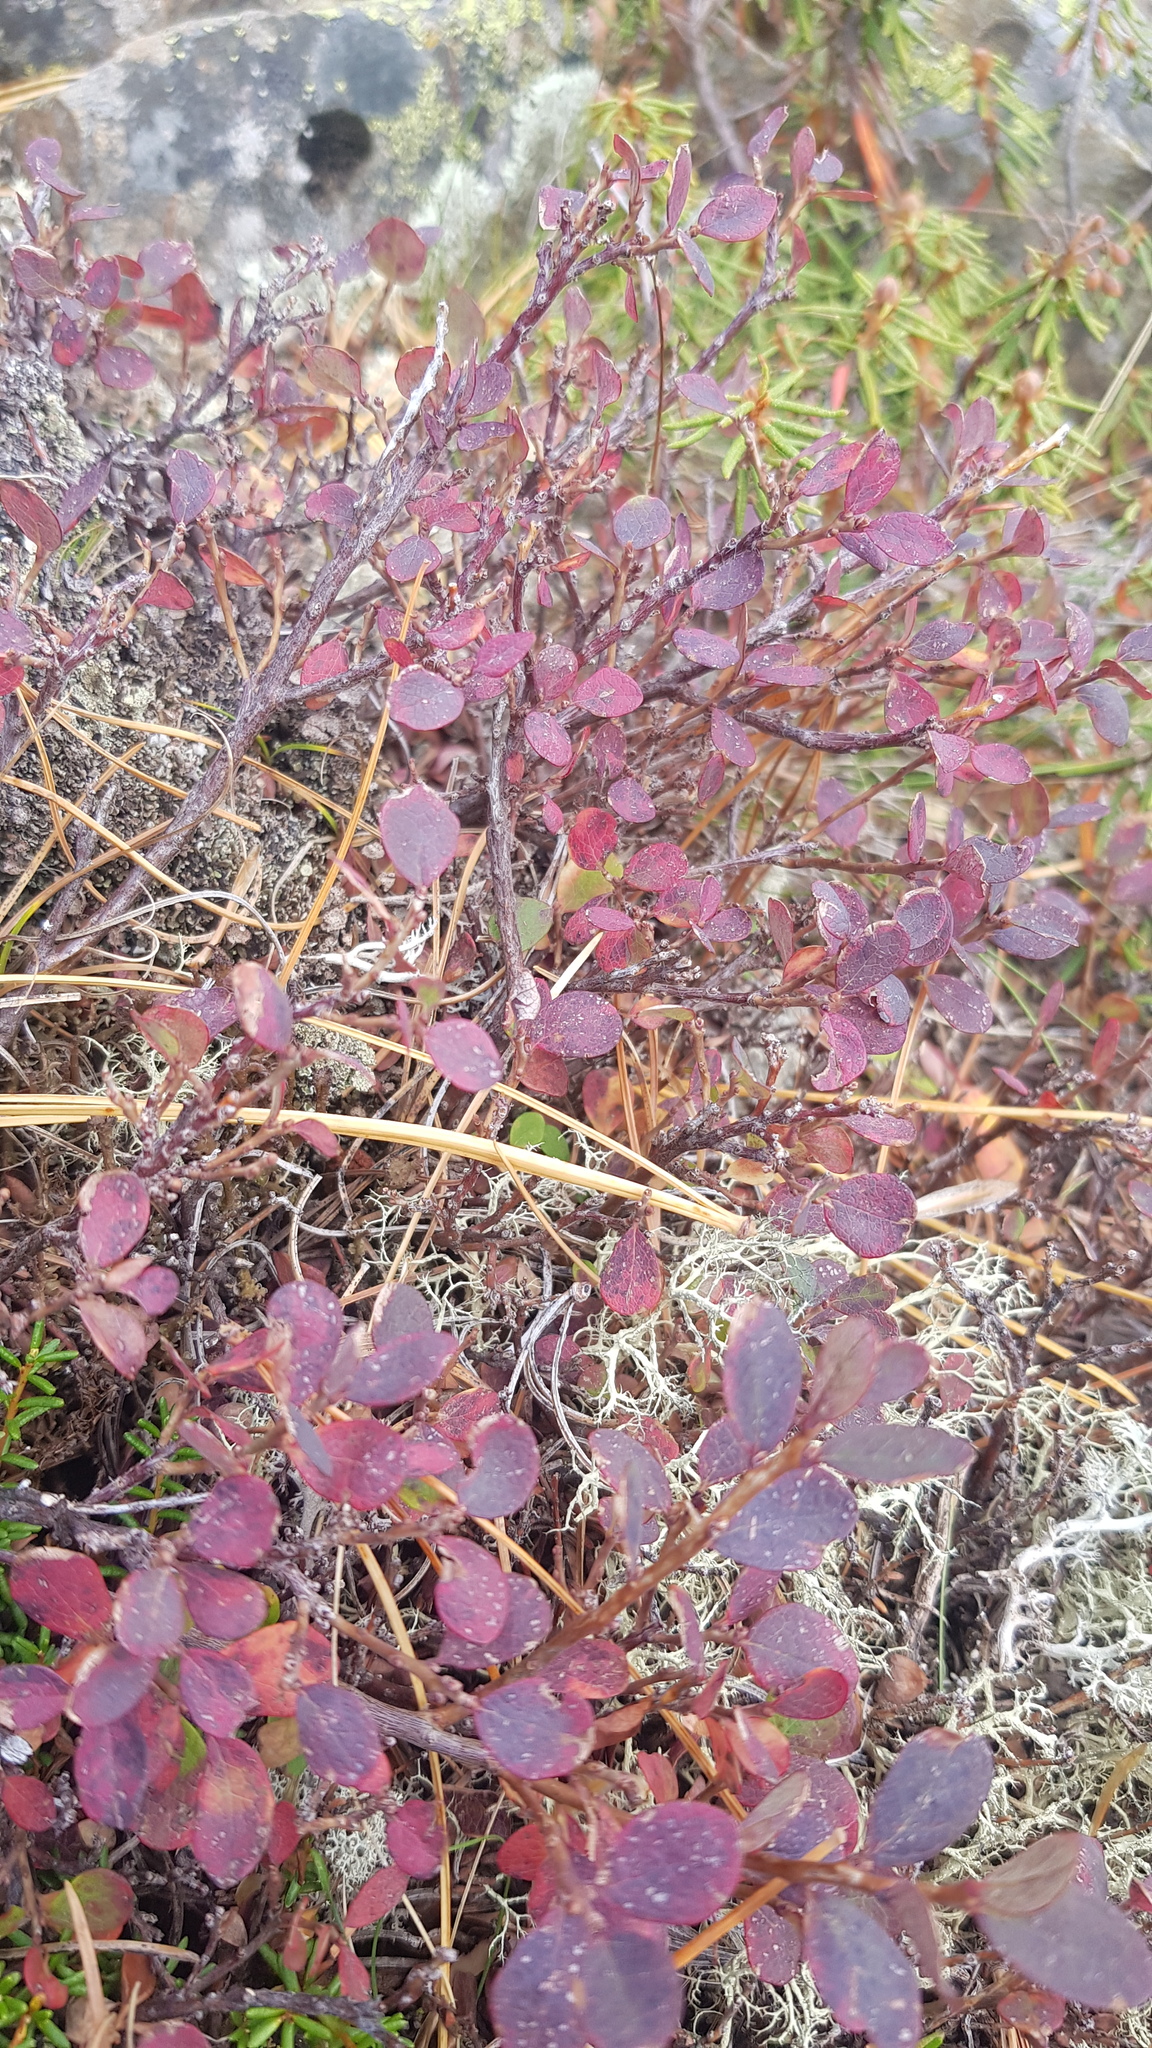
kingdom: Plantae
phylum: Tracheophyta
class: Magnoliopsida
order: Ericales
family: Ericaceae
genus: Vaccinium
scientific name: Vaccinium uliginosum
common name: Bog bilberry
